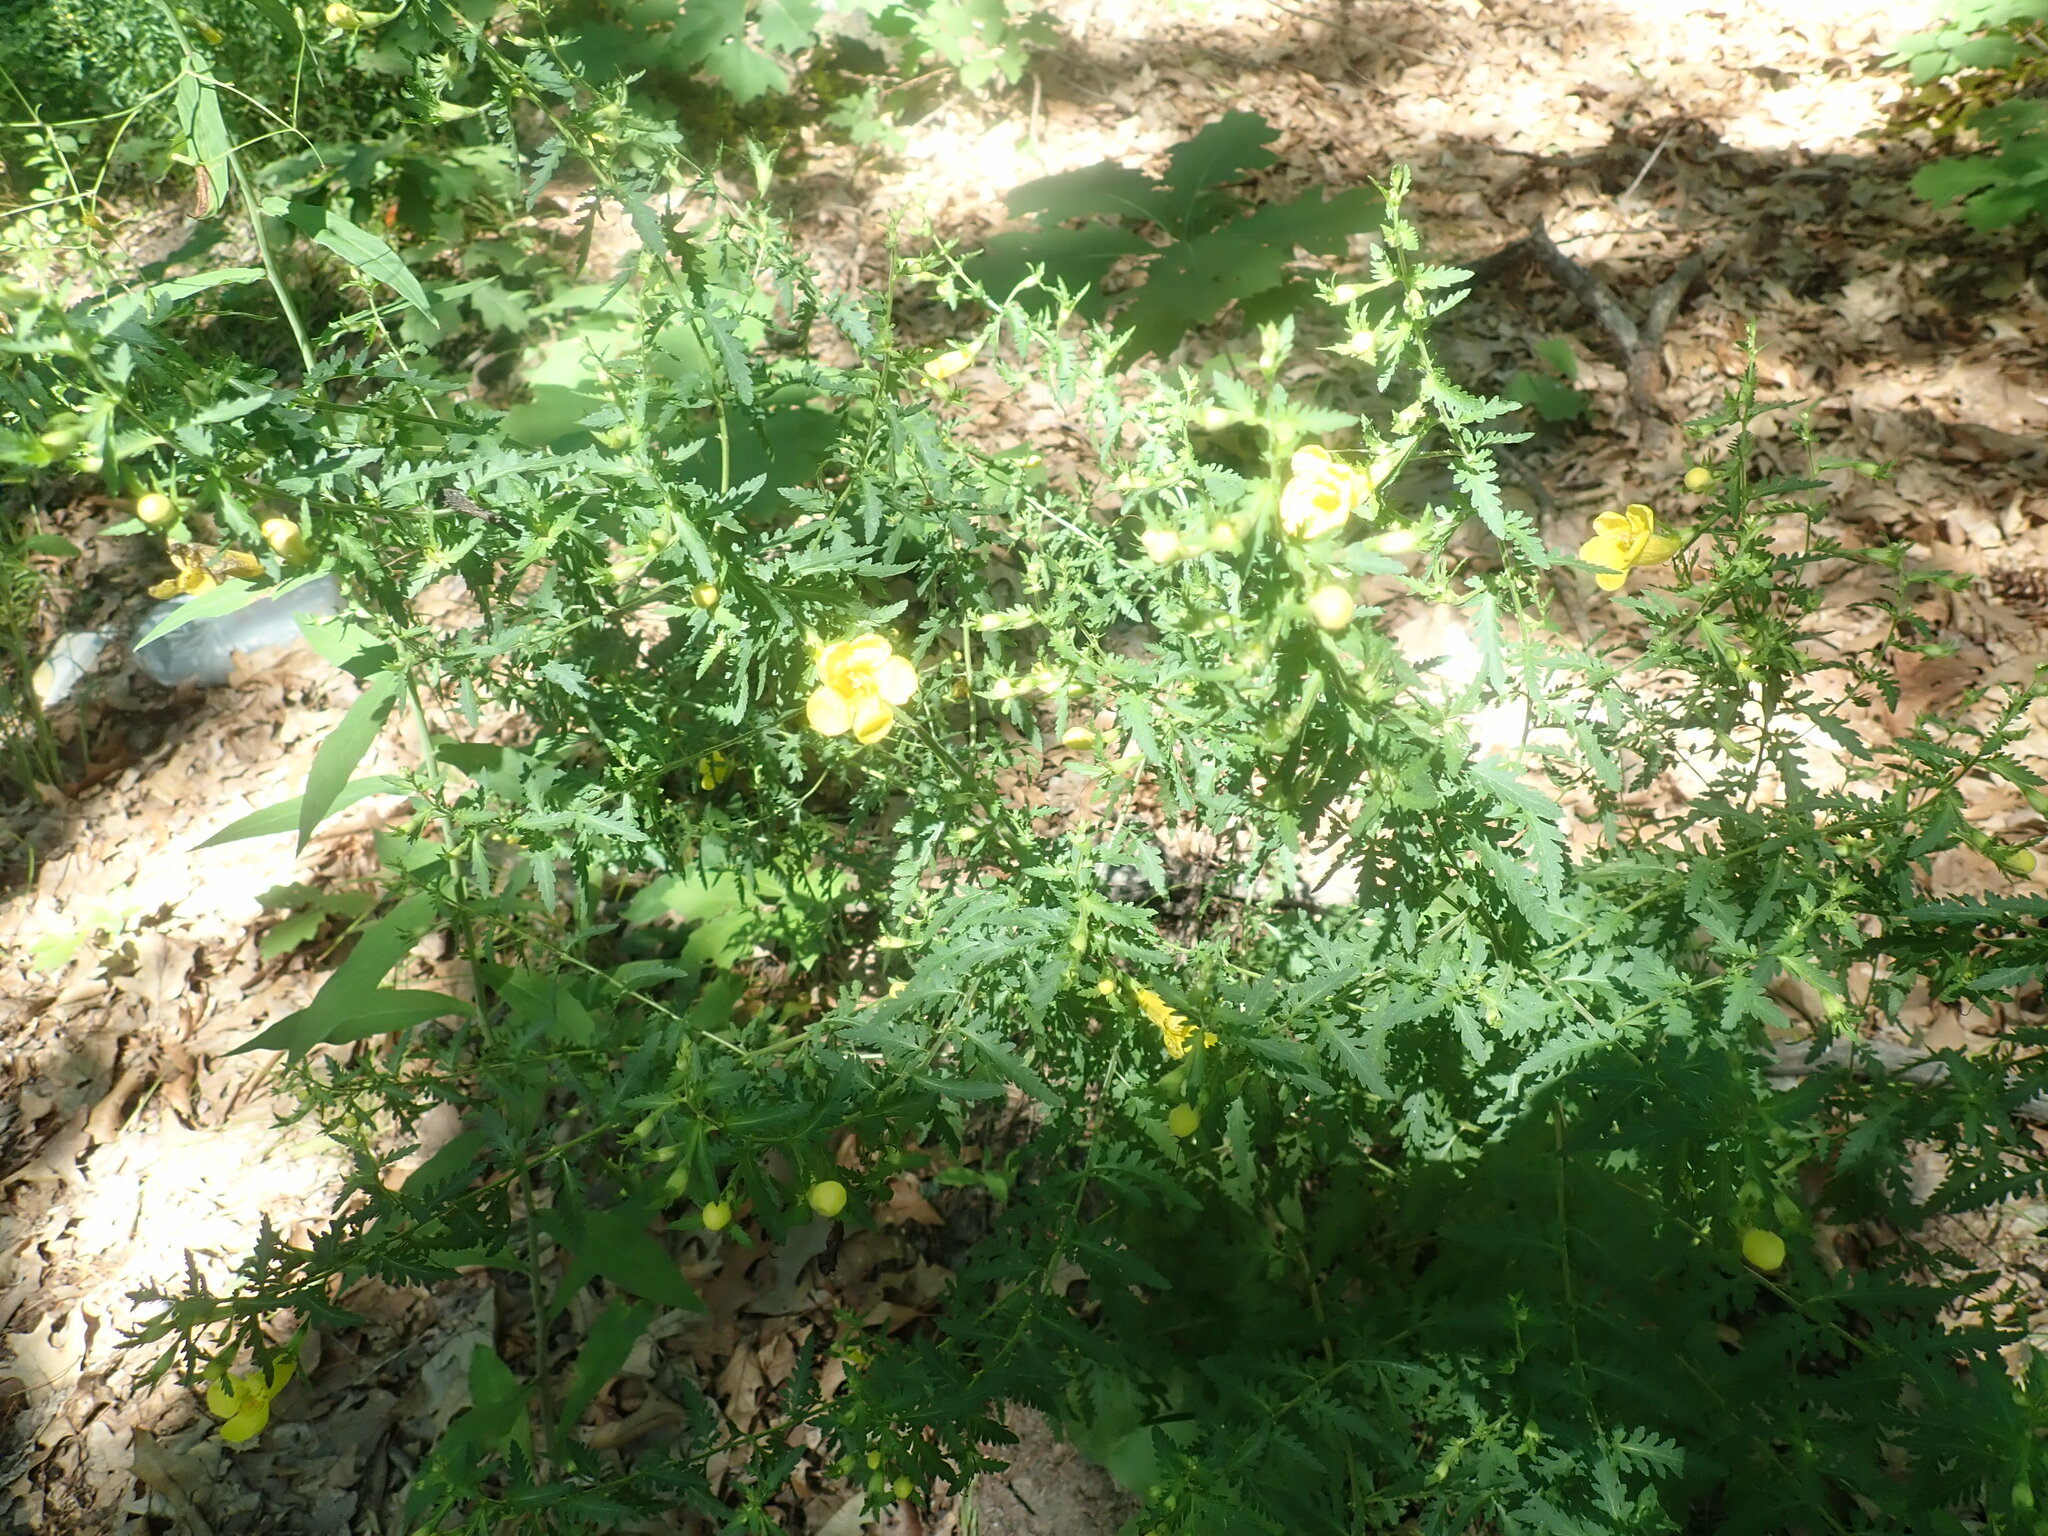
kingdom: Plantae
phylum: Tracheophyta
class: Magnoliopsida
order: Lamiales
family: Orobanchaceae
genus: Aureolaria
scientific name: Aureolaria pedicularia
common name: Annual false foxglove
